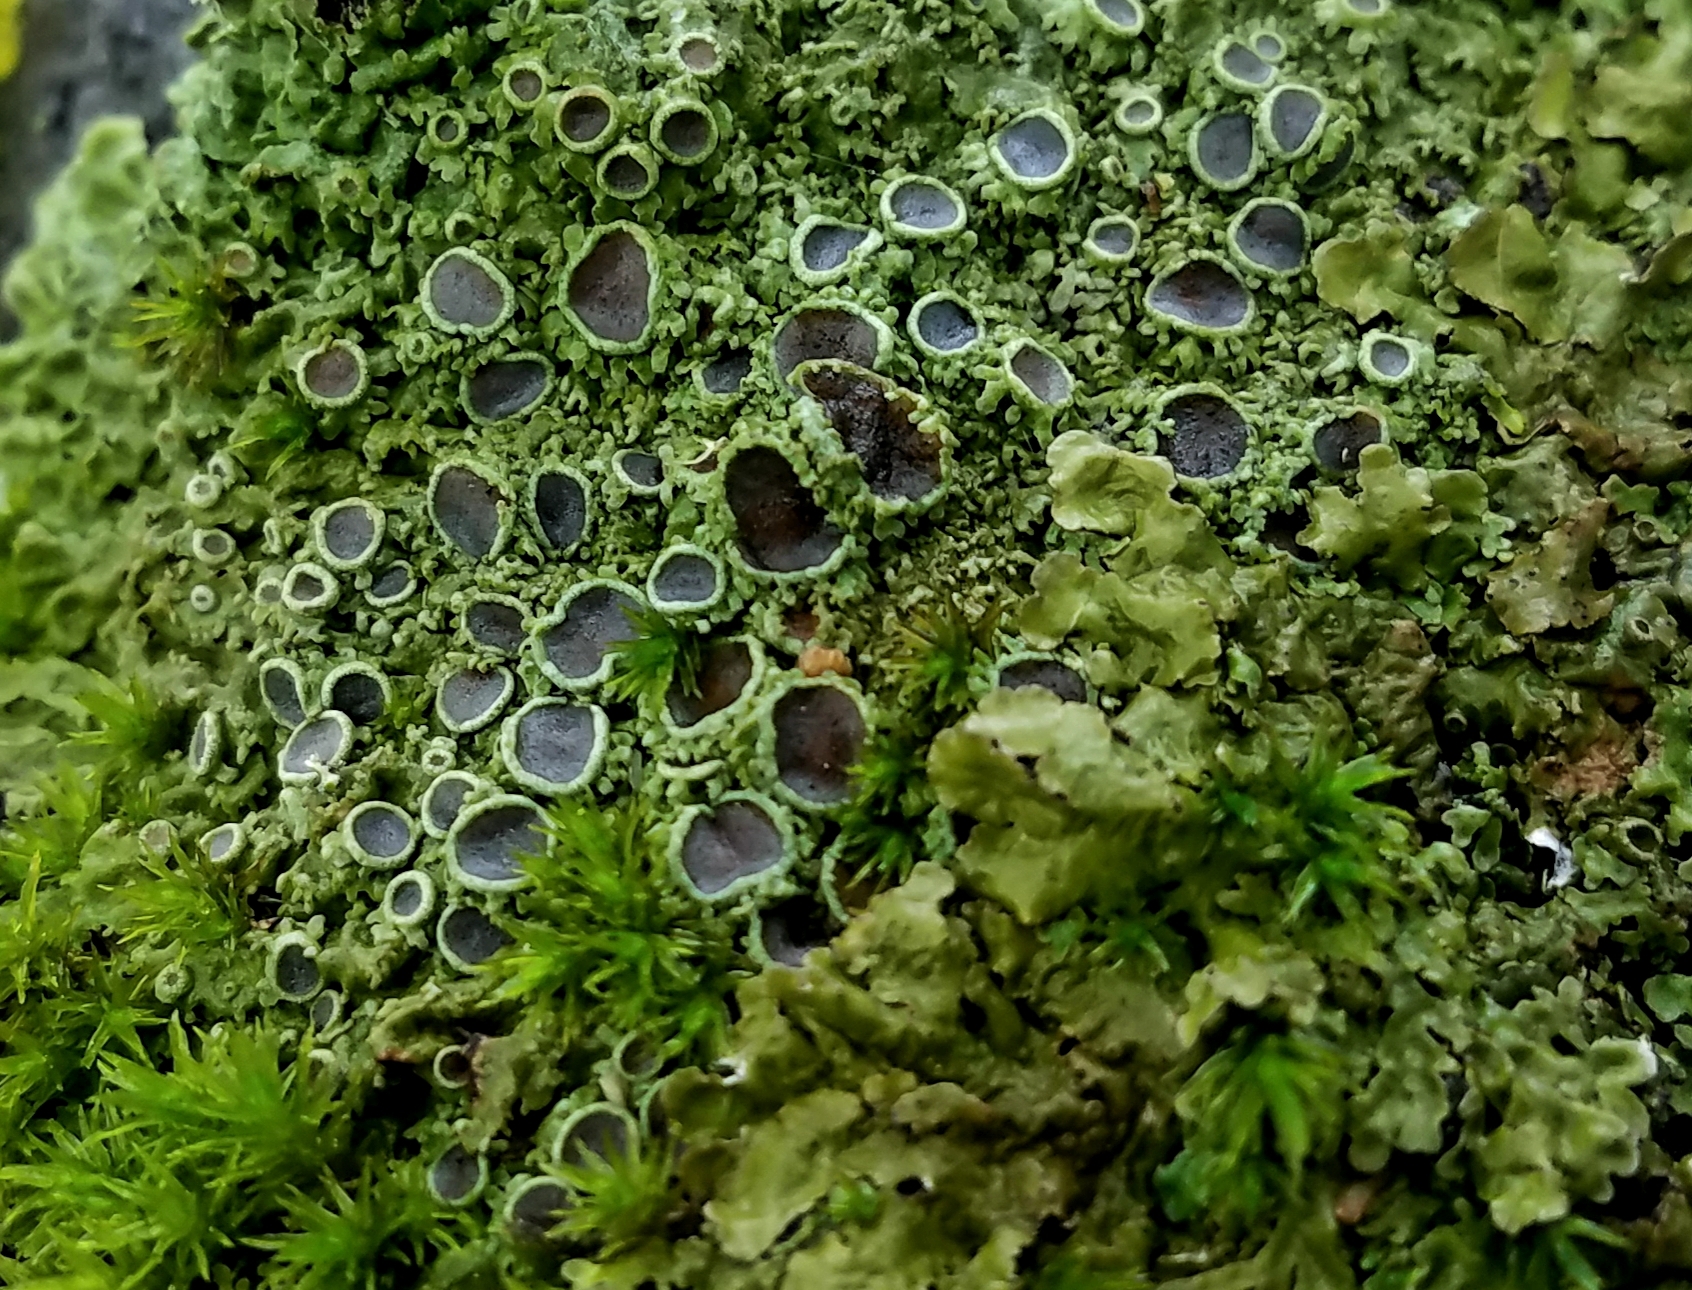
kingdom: Fungi
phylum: Ascomycota
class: Lecanoromycetes
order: Caliciales
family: Physciaceae
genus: Kurokawia
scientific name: Kurokawia palmulata
